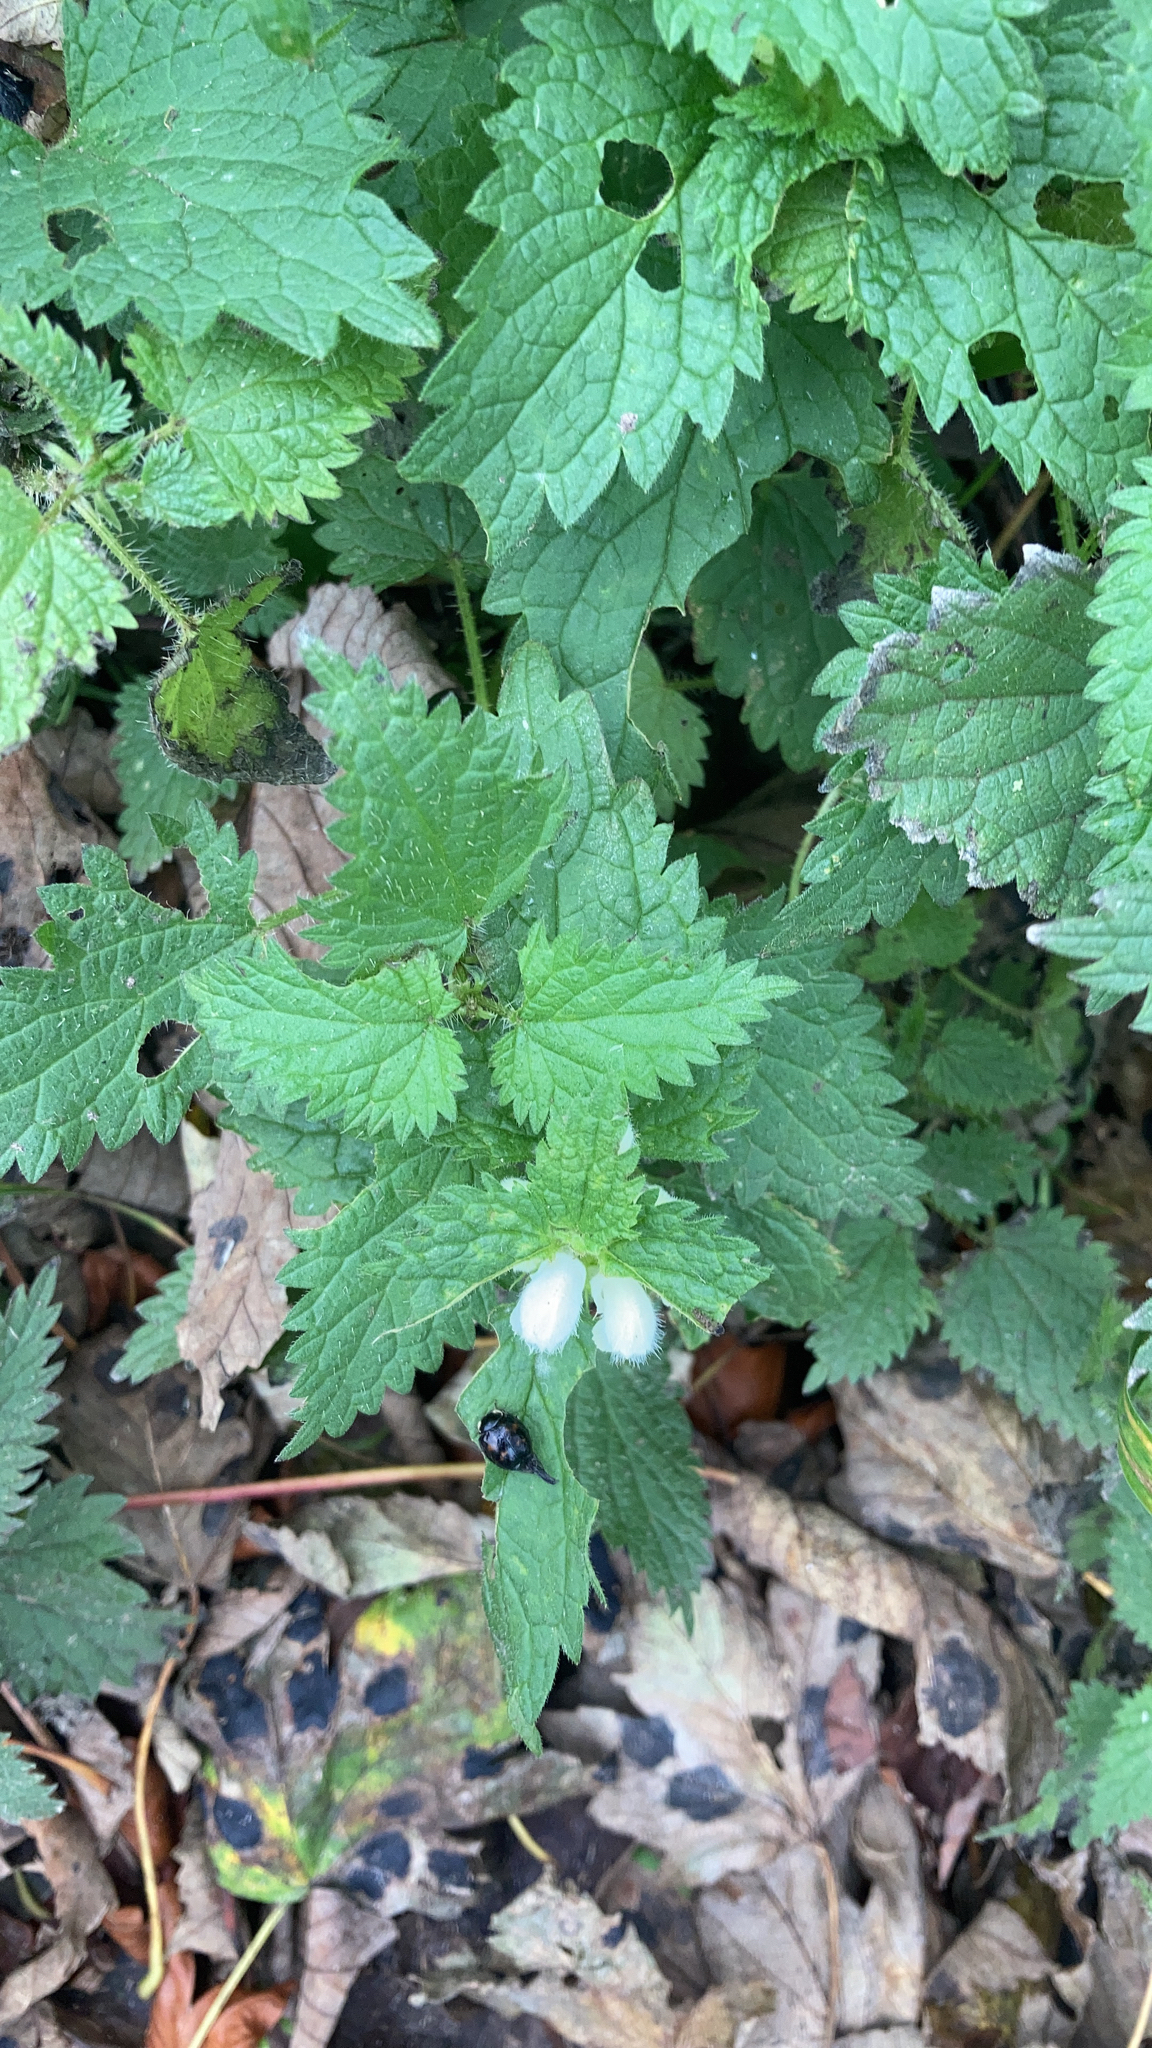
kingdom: Plantae
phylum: Tracheophyta
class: Magnoliopsida
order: Lamiales
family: Lamiaceae
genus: Lamium
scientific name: Lamium album
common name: White dead-nettle
